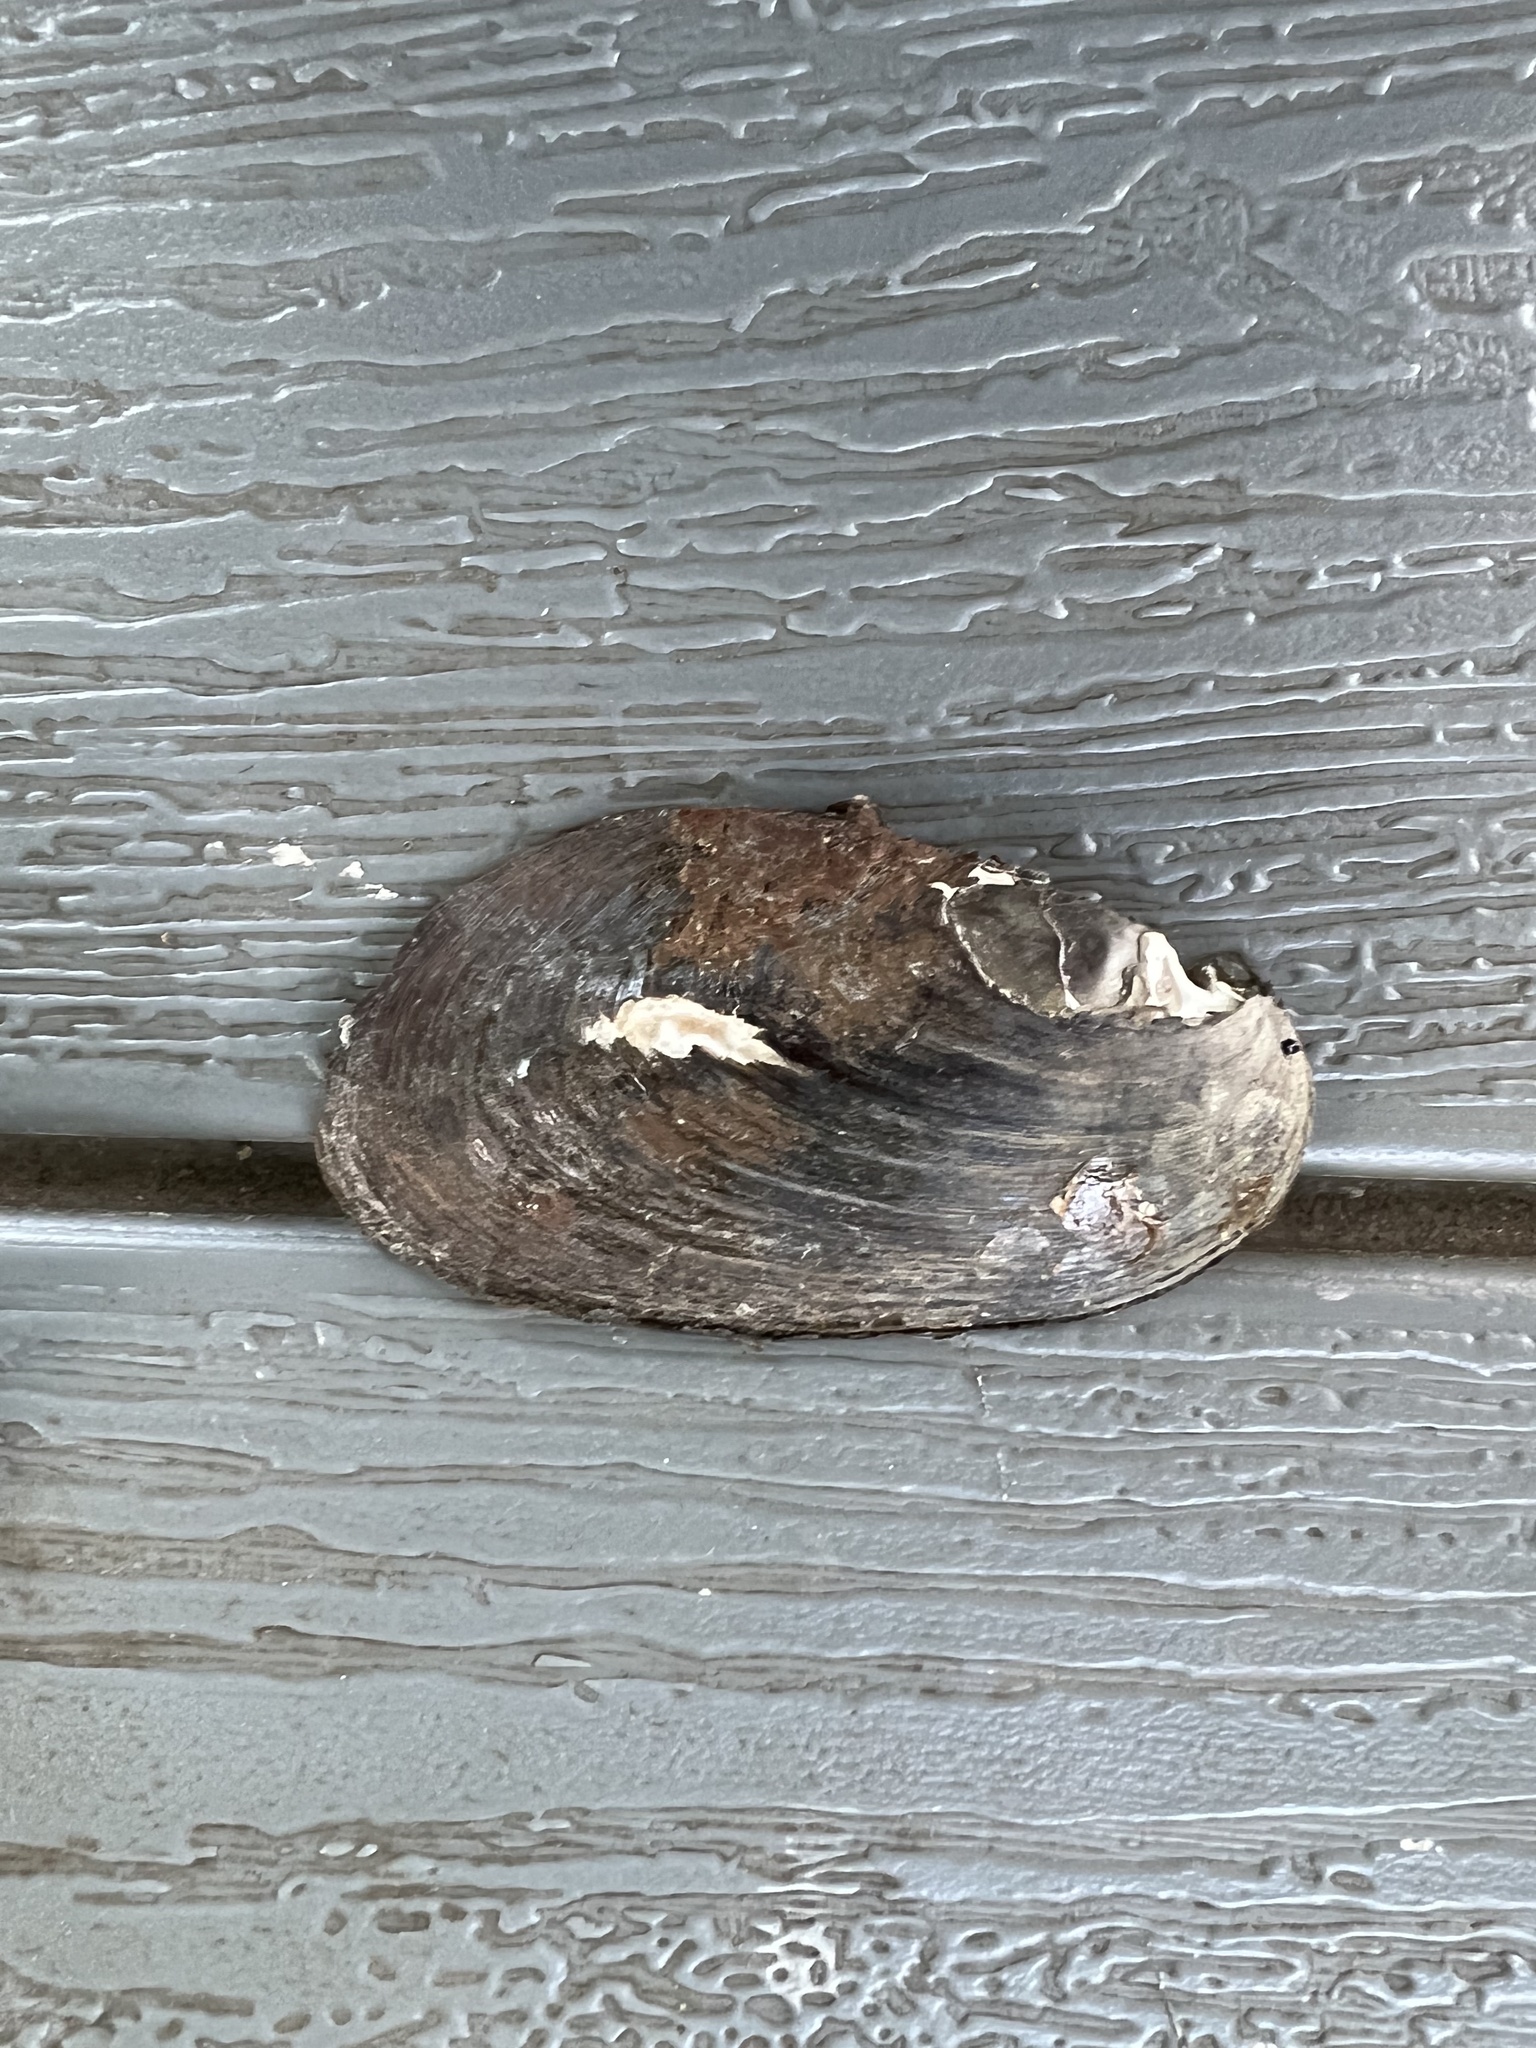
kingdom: Animalia
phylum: Mollusca
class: Bivalvia
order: Unionida
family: Unionidae
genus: Elliptio
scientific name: Elliptio complanata
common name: Eastern elliptio
